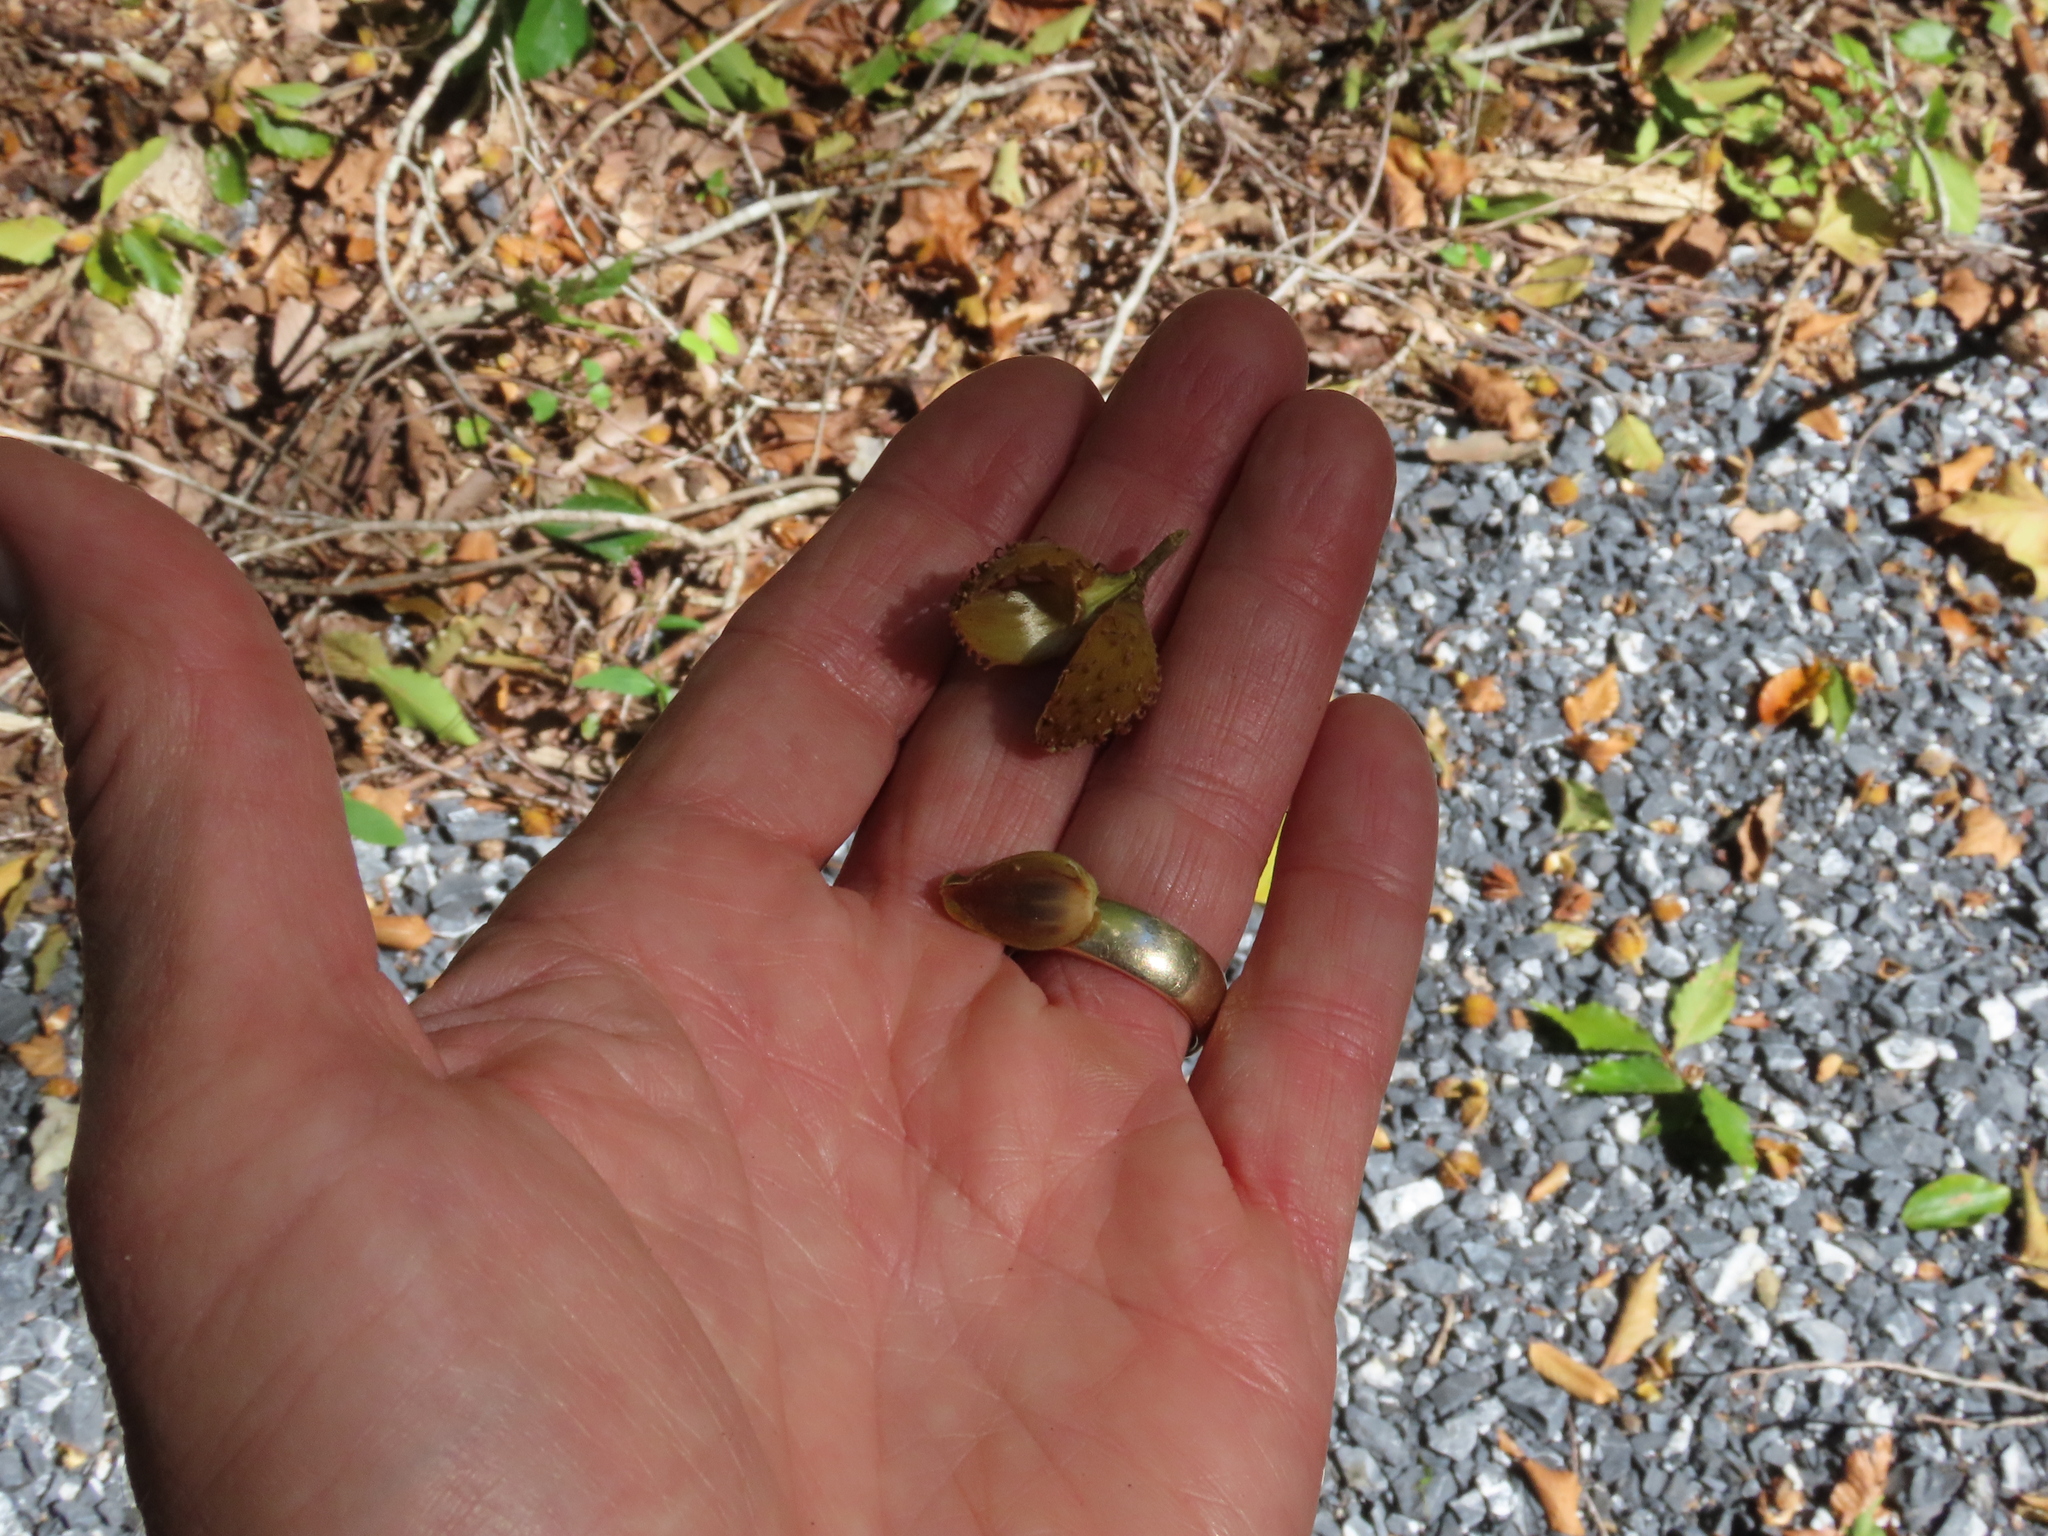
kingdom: Plantae
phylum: Tracheophyta
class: Magnoliopsida
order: Fagales
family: Fagaceae
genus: Fagus
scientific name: Fagus grandifolia
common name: American beech
